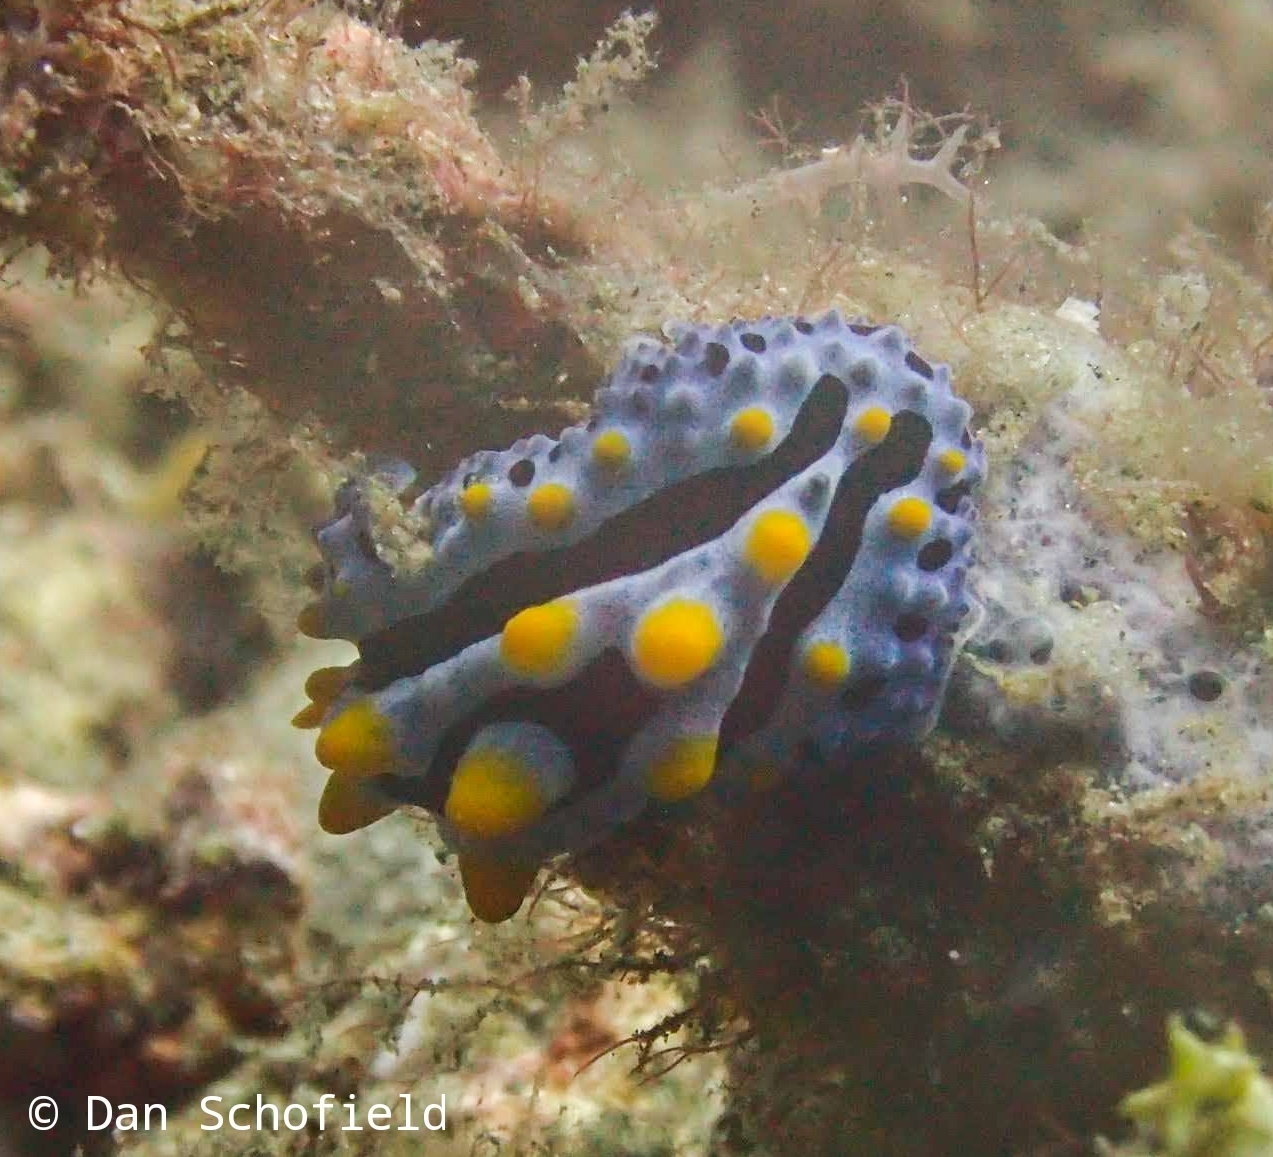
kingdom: Animalia
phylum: Mollusca
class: Gastropoda
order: Nudibranchia
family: Phyllidiidae
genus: Phyllidia
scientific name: Phyllidia coelestis
